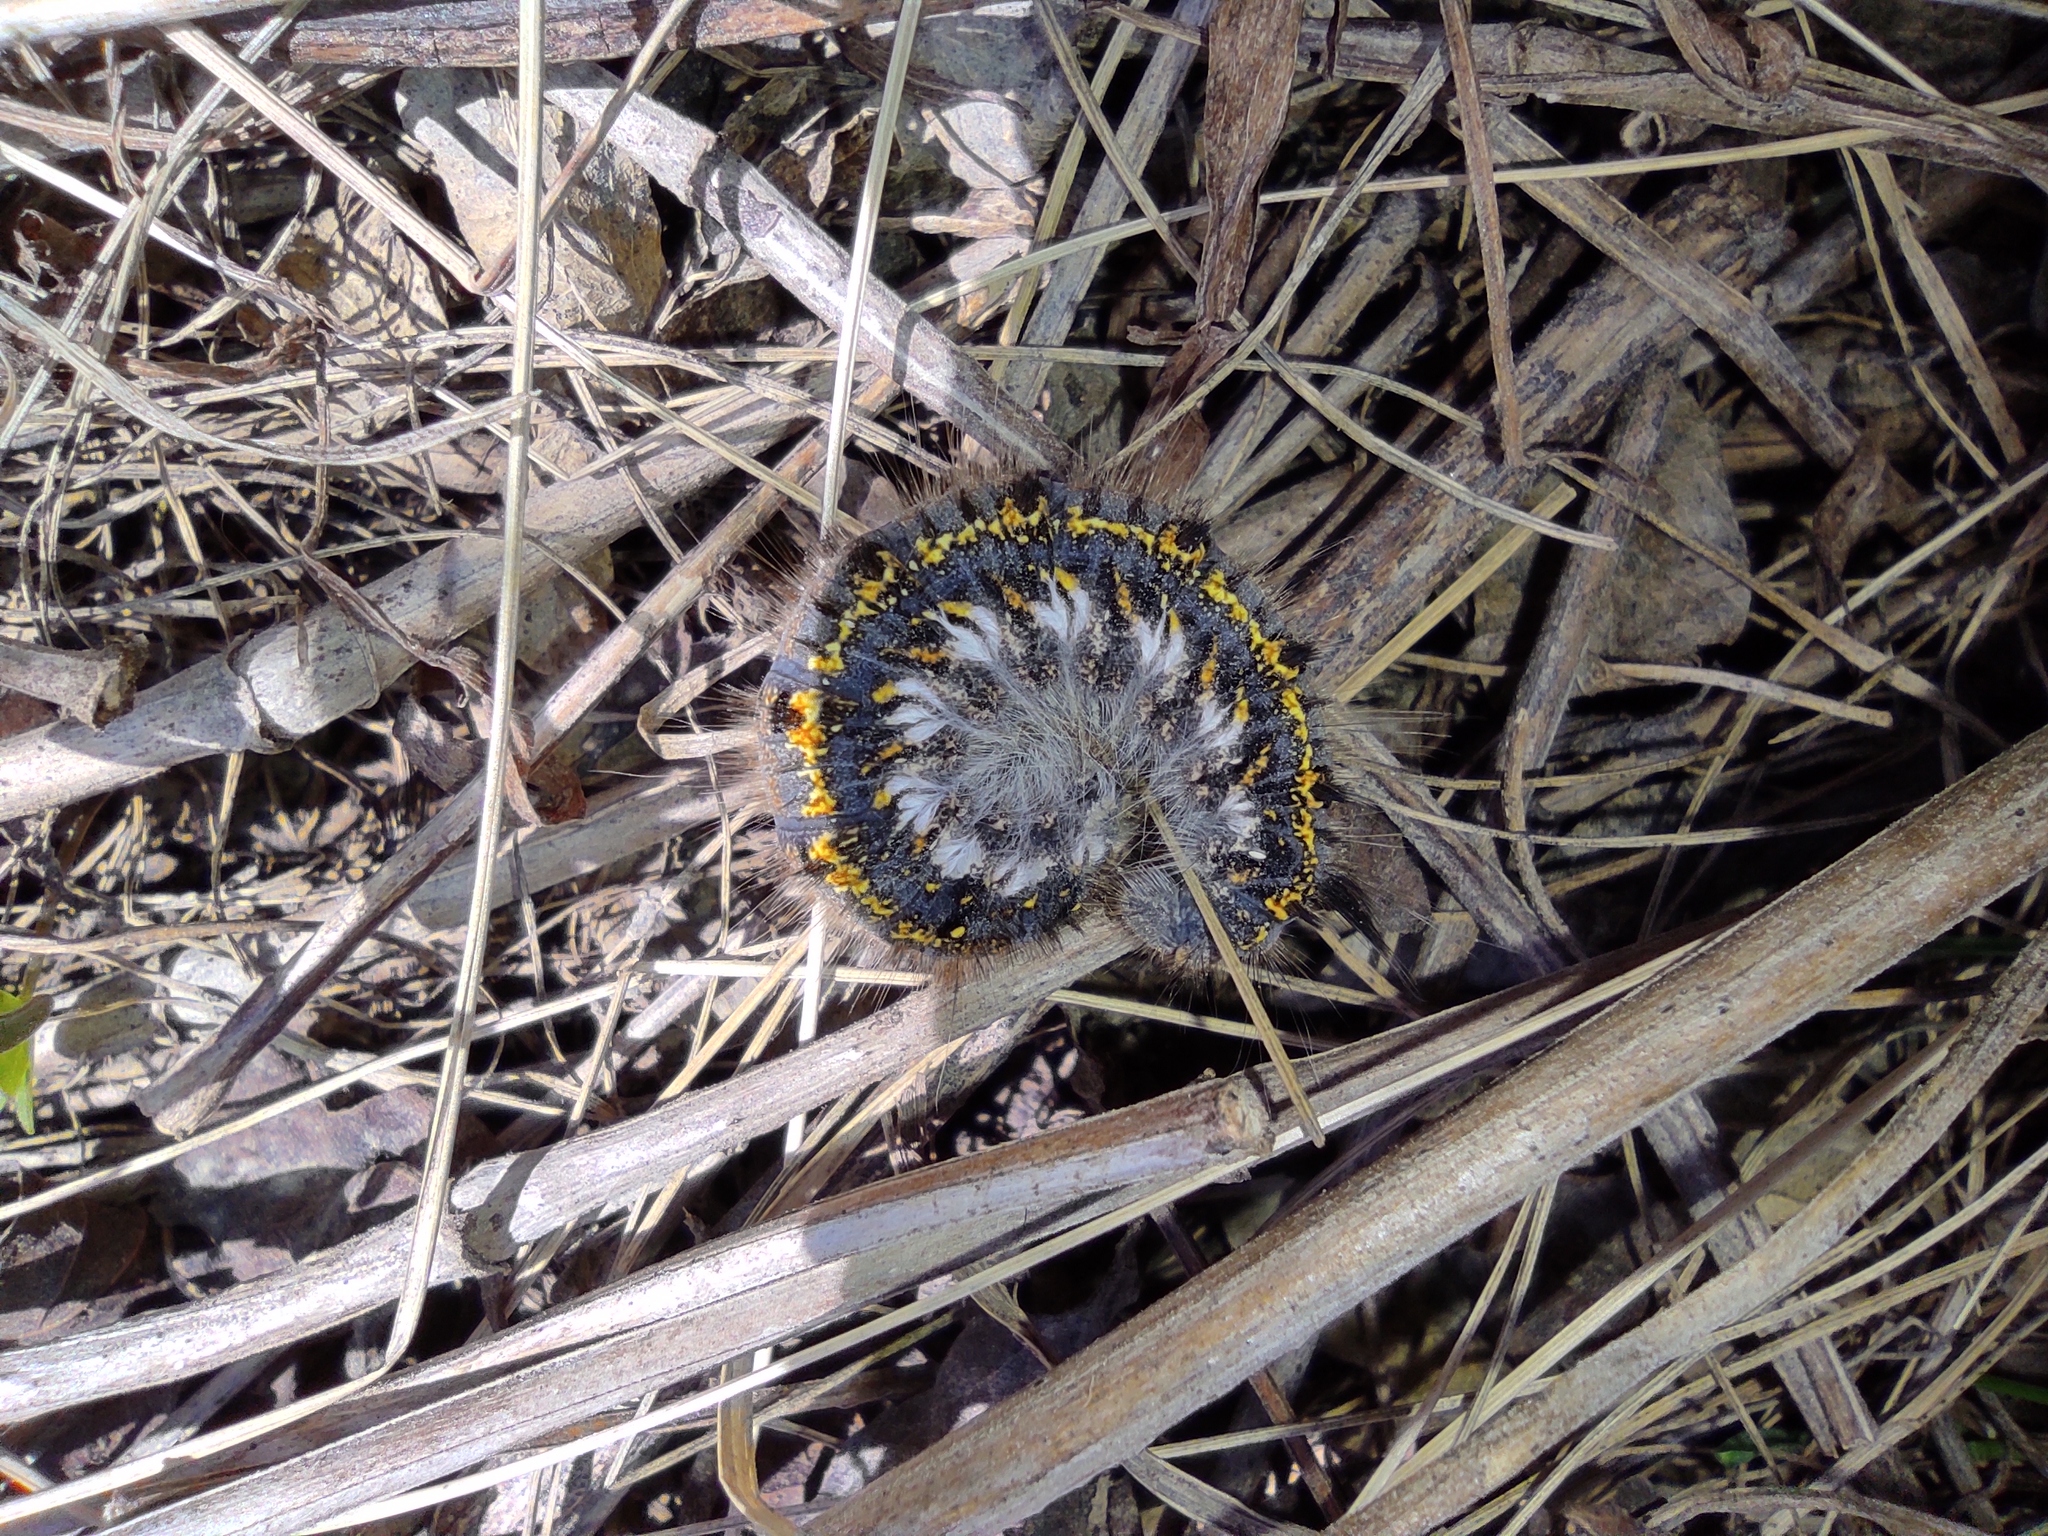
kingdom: Animalia
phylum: Arthropoda
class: Insecta
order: Lepidoptera
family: Lasiocampidae
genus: Euthrix
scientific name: Euthrix potatoria
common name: Drinker
